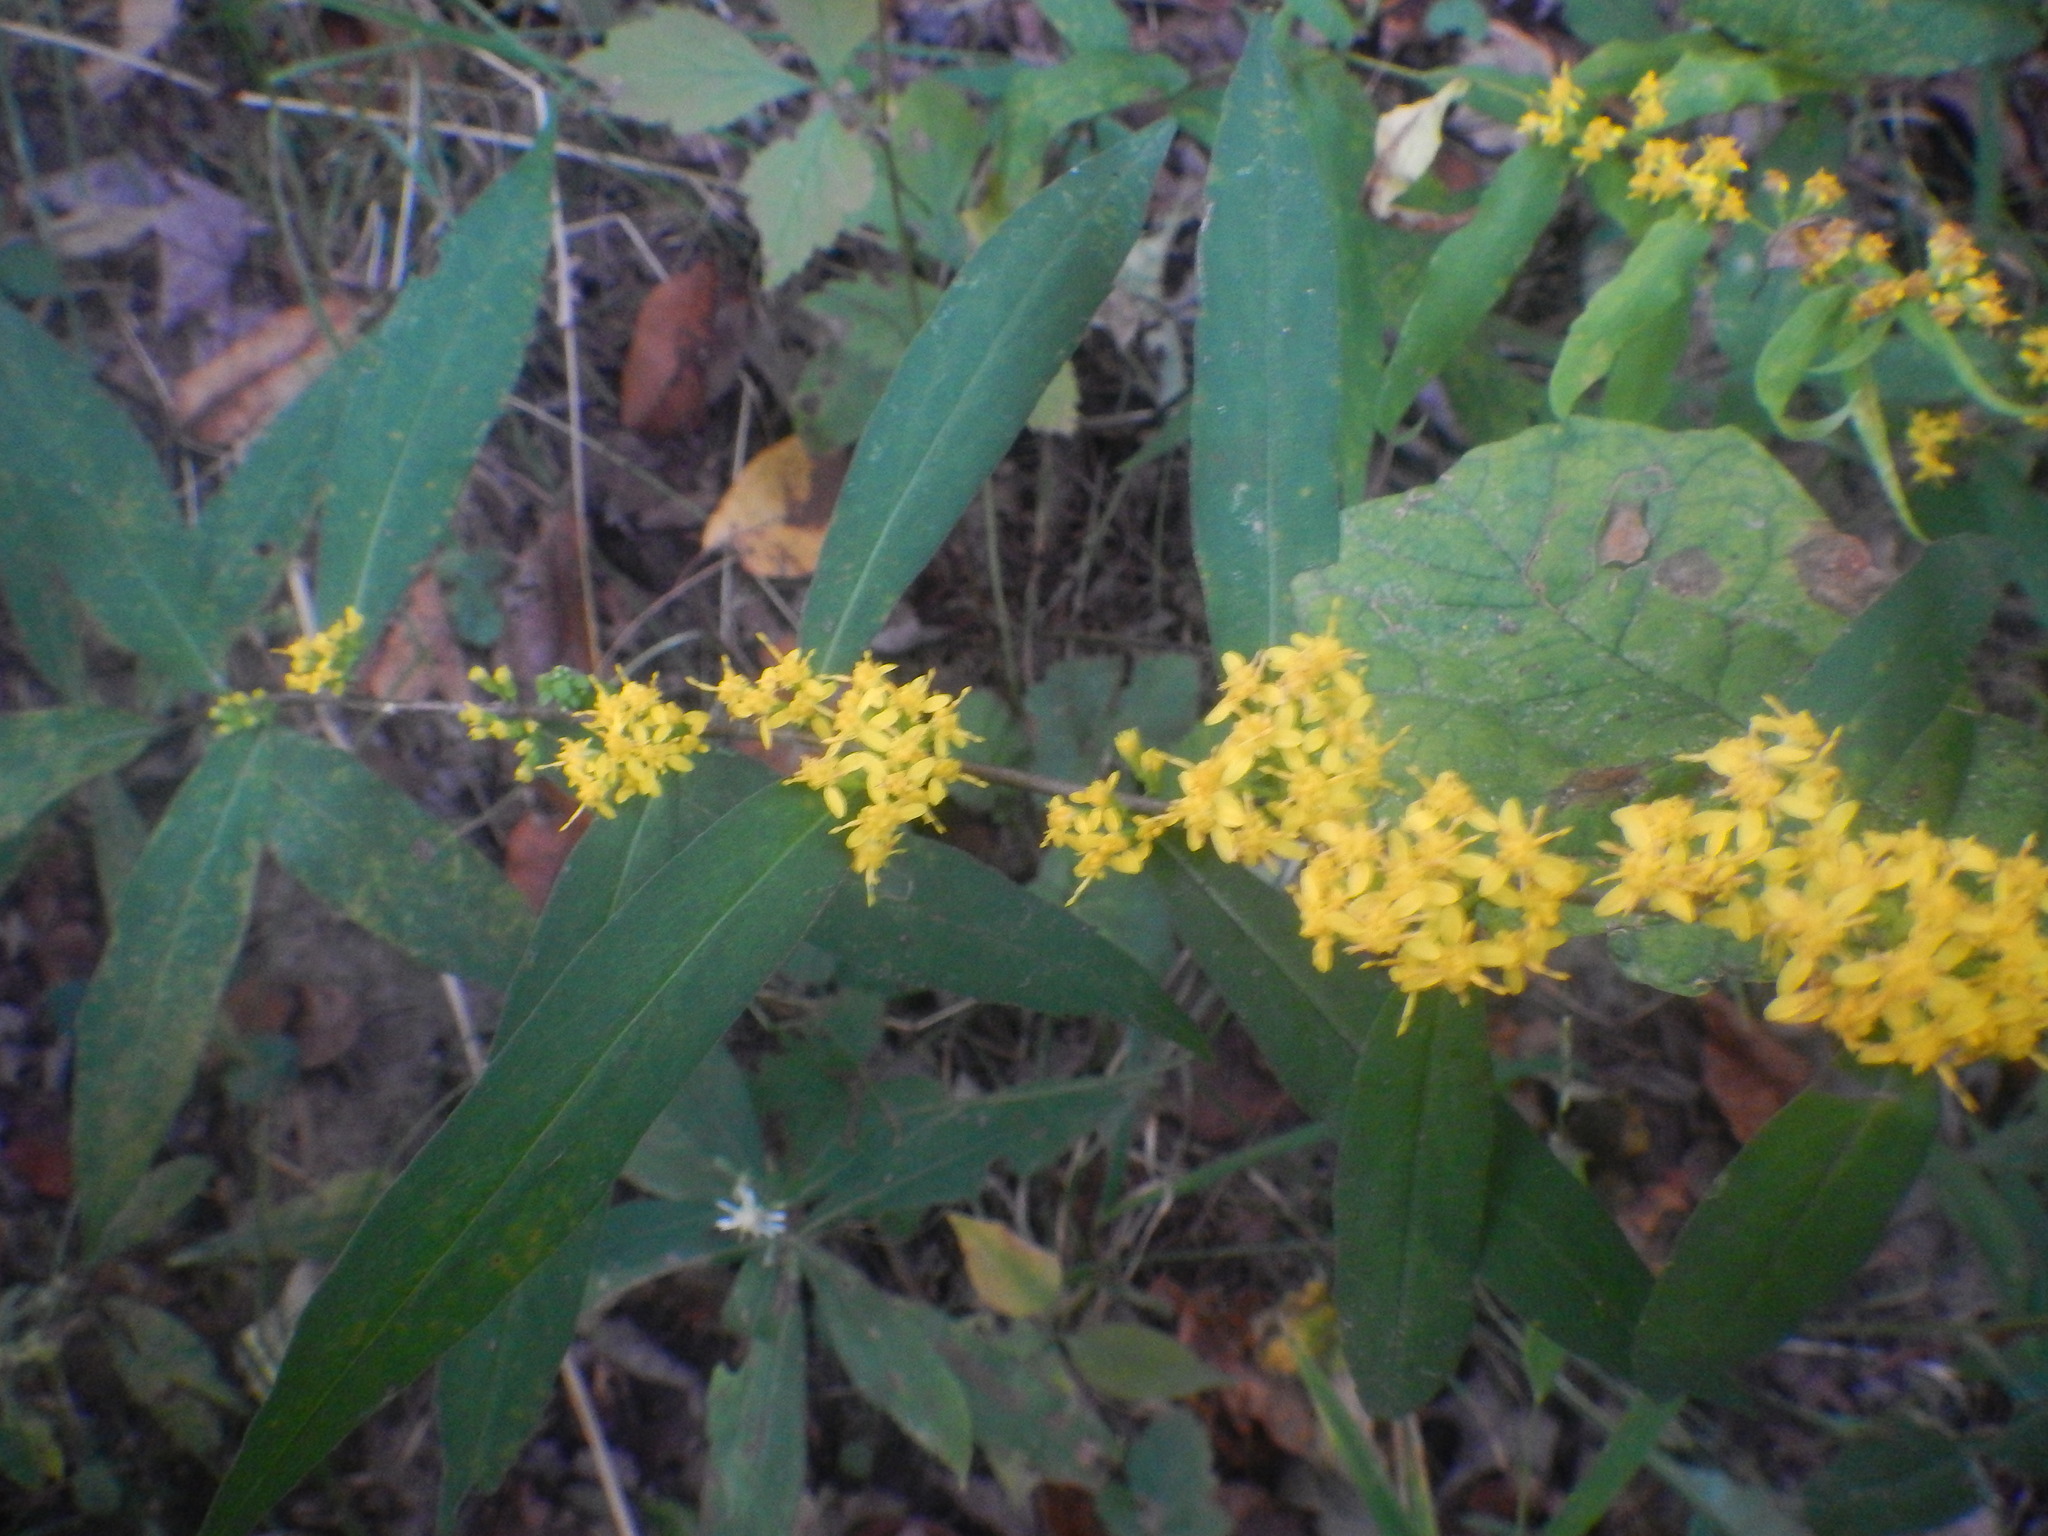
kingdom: Plantae
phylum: Tracheophyta
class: Magnoliopsida
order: Asterales
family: Asteraceae
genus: Solidago
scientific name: Solidago caesia
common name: Woodland goldenrod
